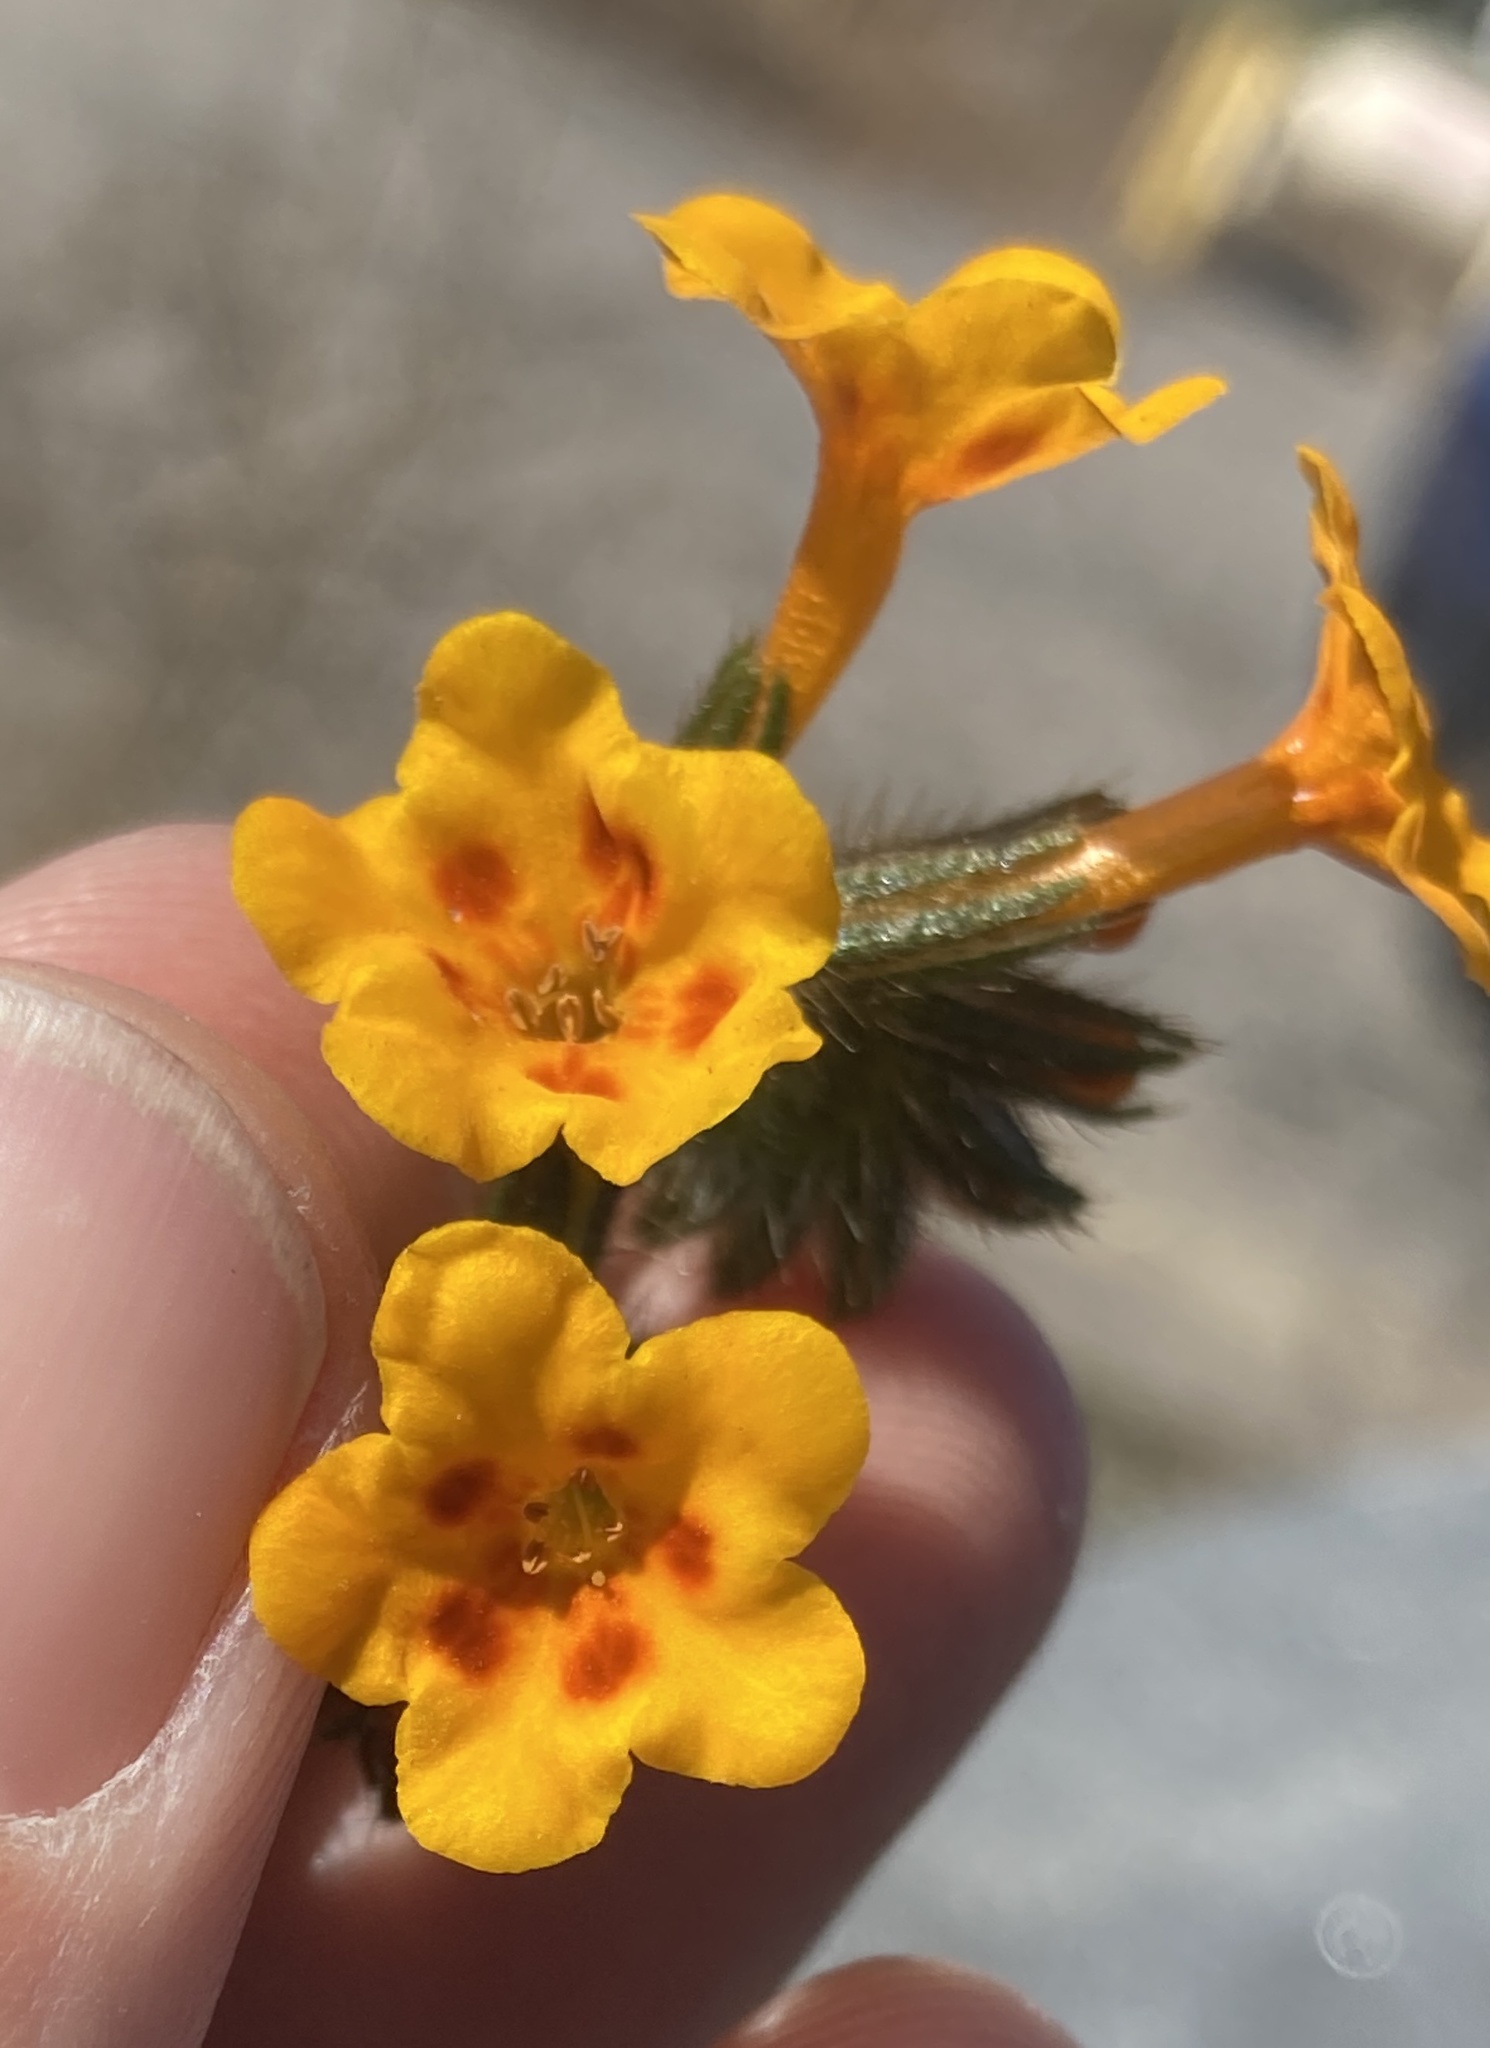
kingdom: Plantae
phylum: Tracheophyta
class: Magnoliopsida
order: Boraginales
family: Boraginaceae
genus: Amsinckia
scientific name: Amsinckia eastwoodiae
